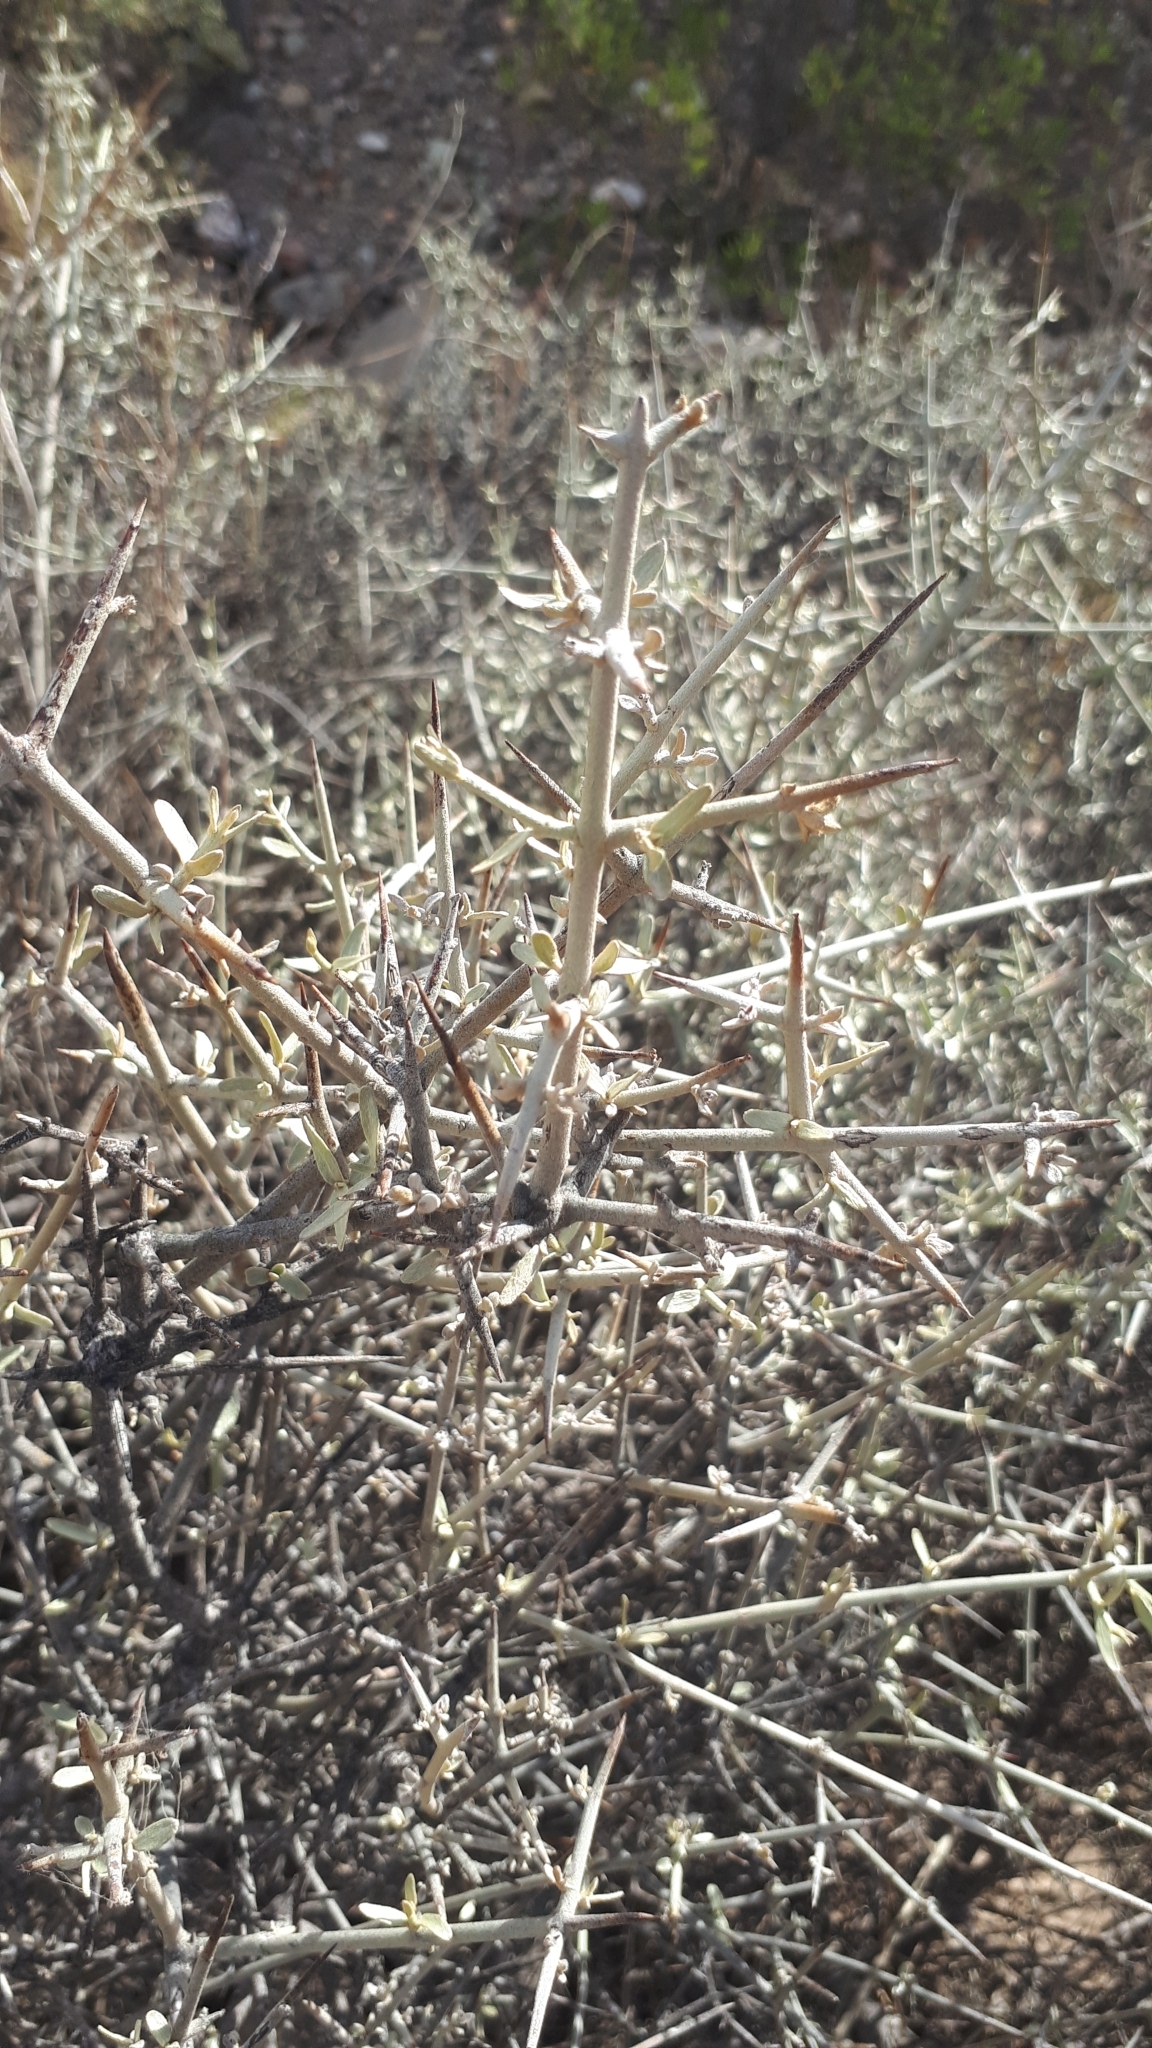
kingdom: Plantae
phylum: Tracheophyta
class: Magnoliopsida
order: Malpighiales
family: Malpighiaceae
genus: Tricomaria
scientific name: Tricomaria usillo
